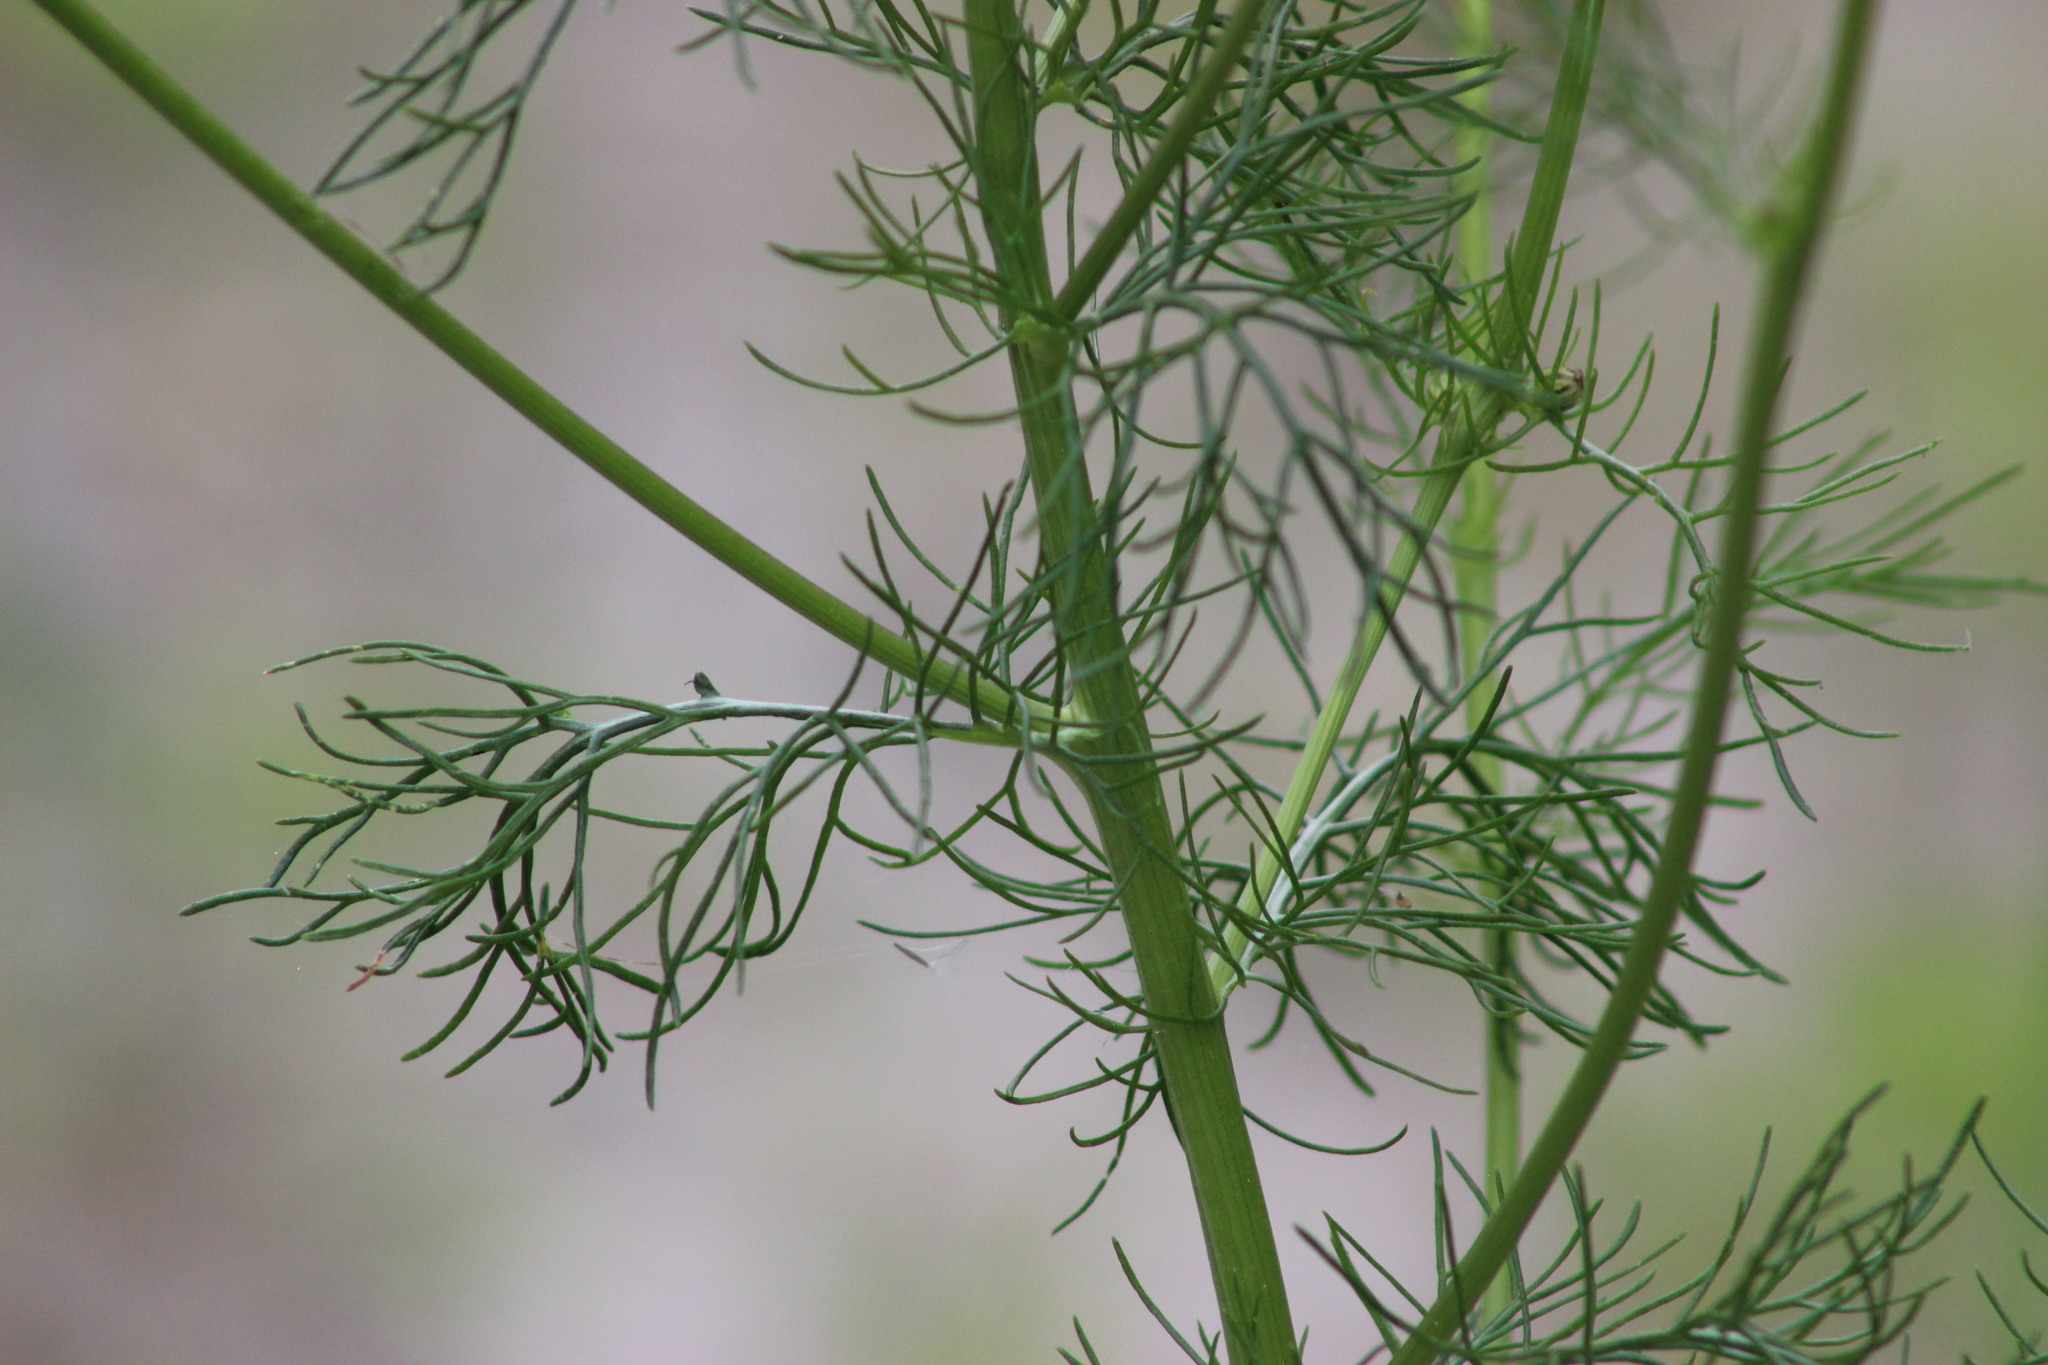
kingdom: Plantae
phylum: Tracheophyta
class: Magnoliopsida
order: Asterales
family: Asteraceae
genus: Tripleurospermum
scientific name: Tripleurospermum inodorum
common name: Scentless mayweed
